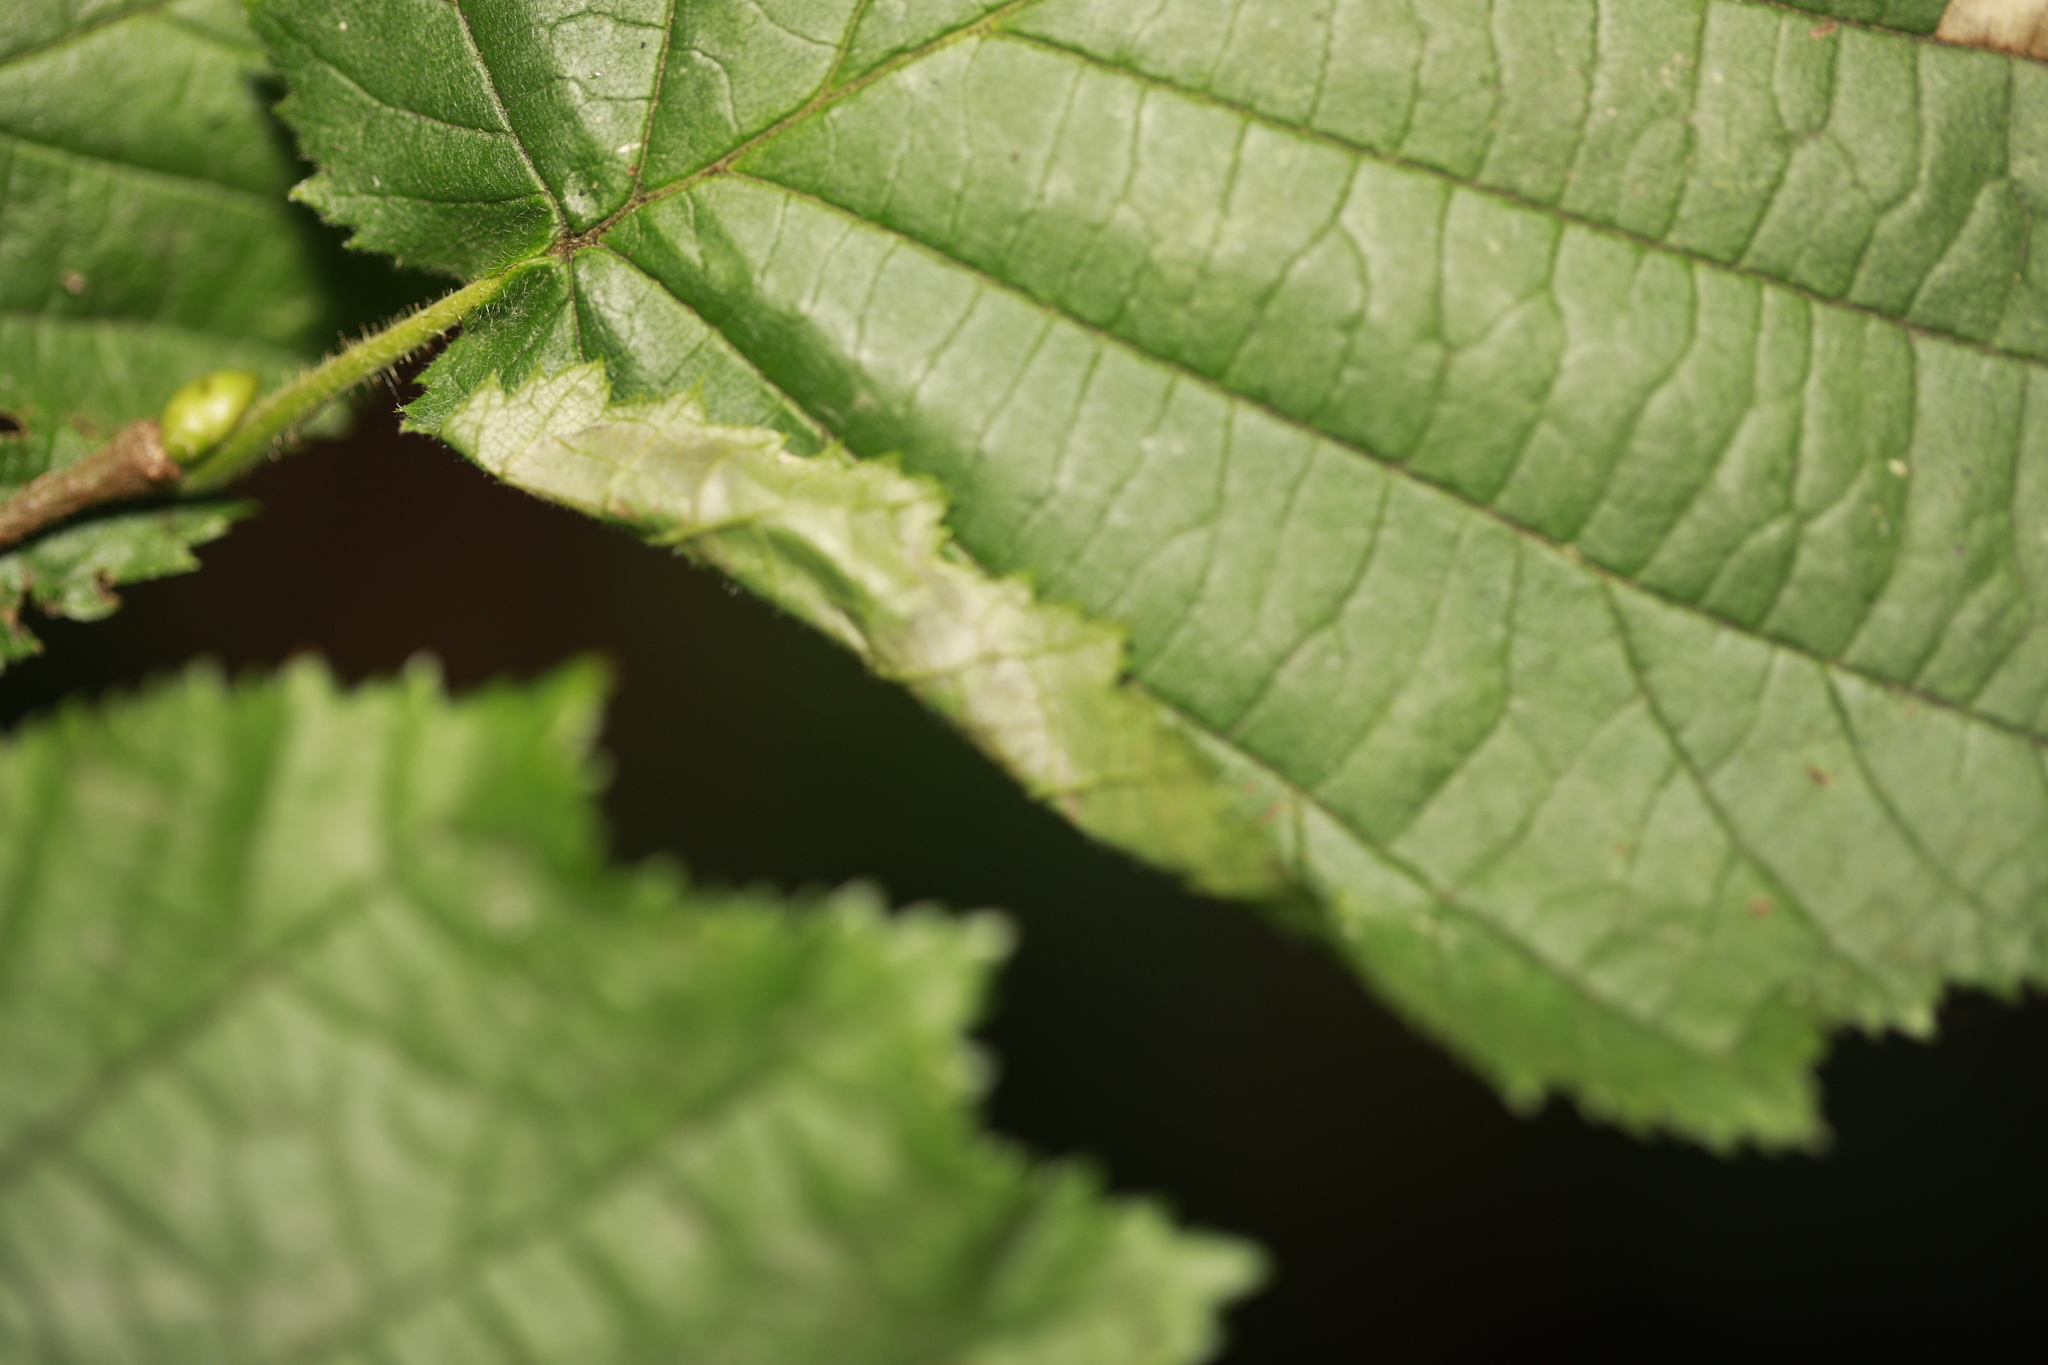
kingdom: Animalia
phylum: Arthropoda
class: Insecta
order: Lepidoptera
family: Gracillariidae
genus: Parornix
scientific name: Parornix devoniella
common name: Hazel slender
